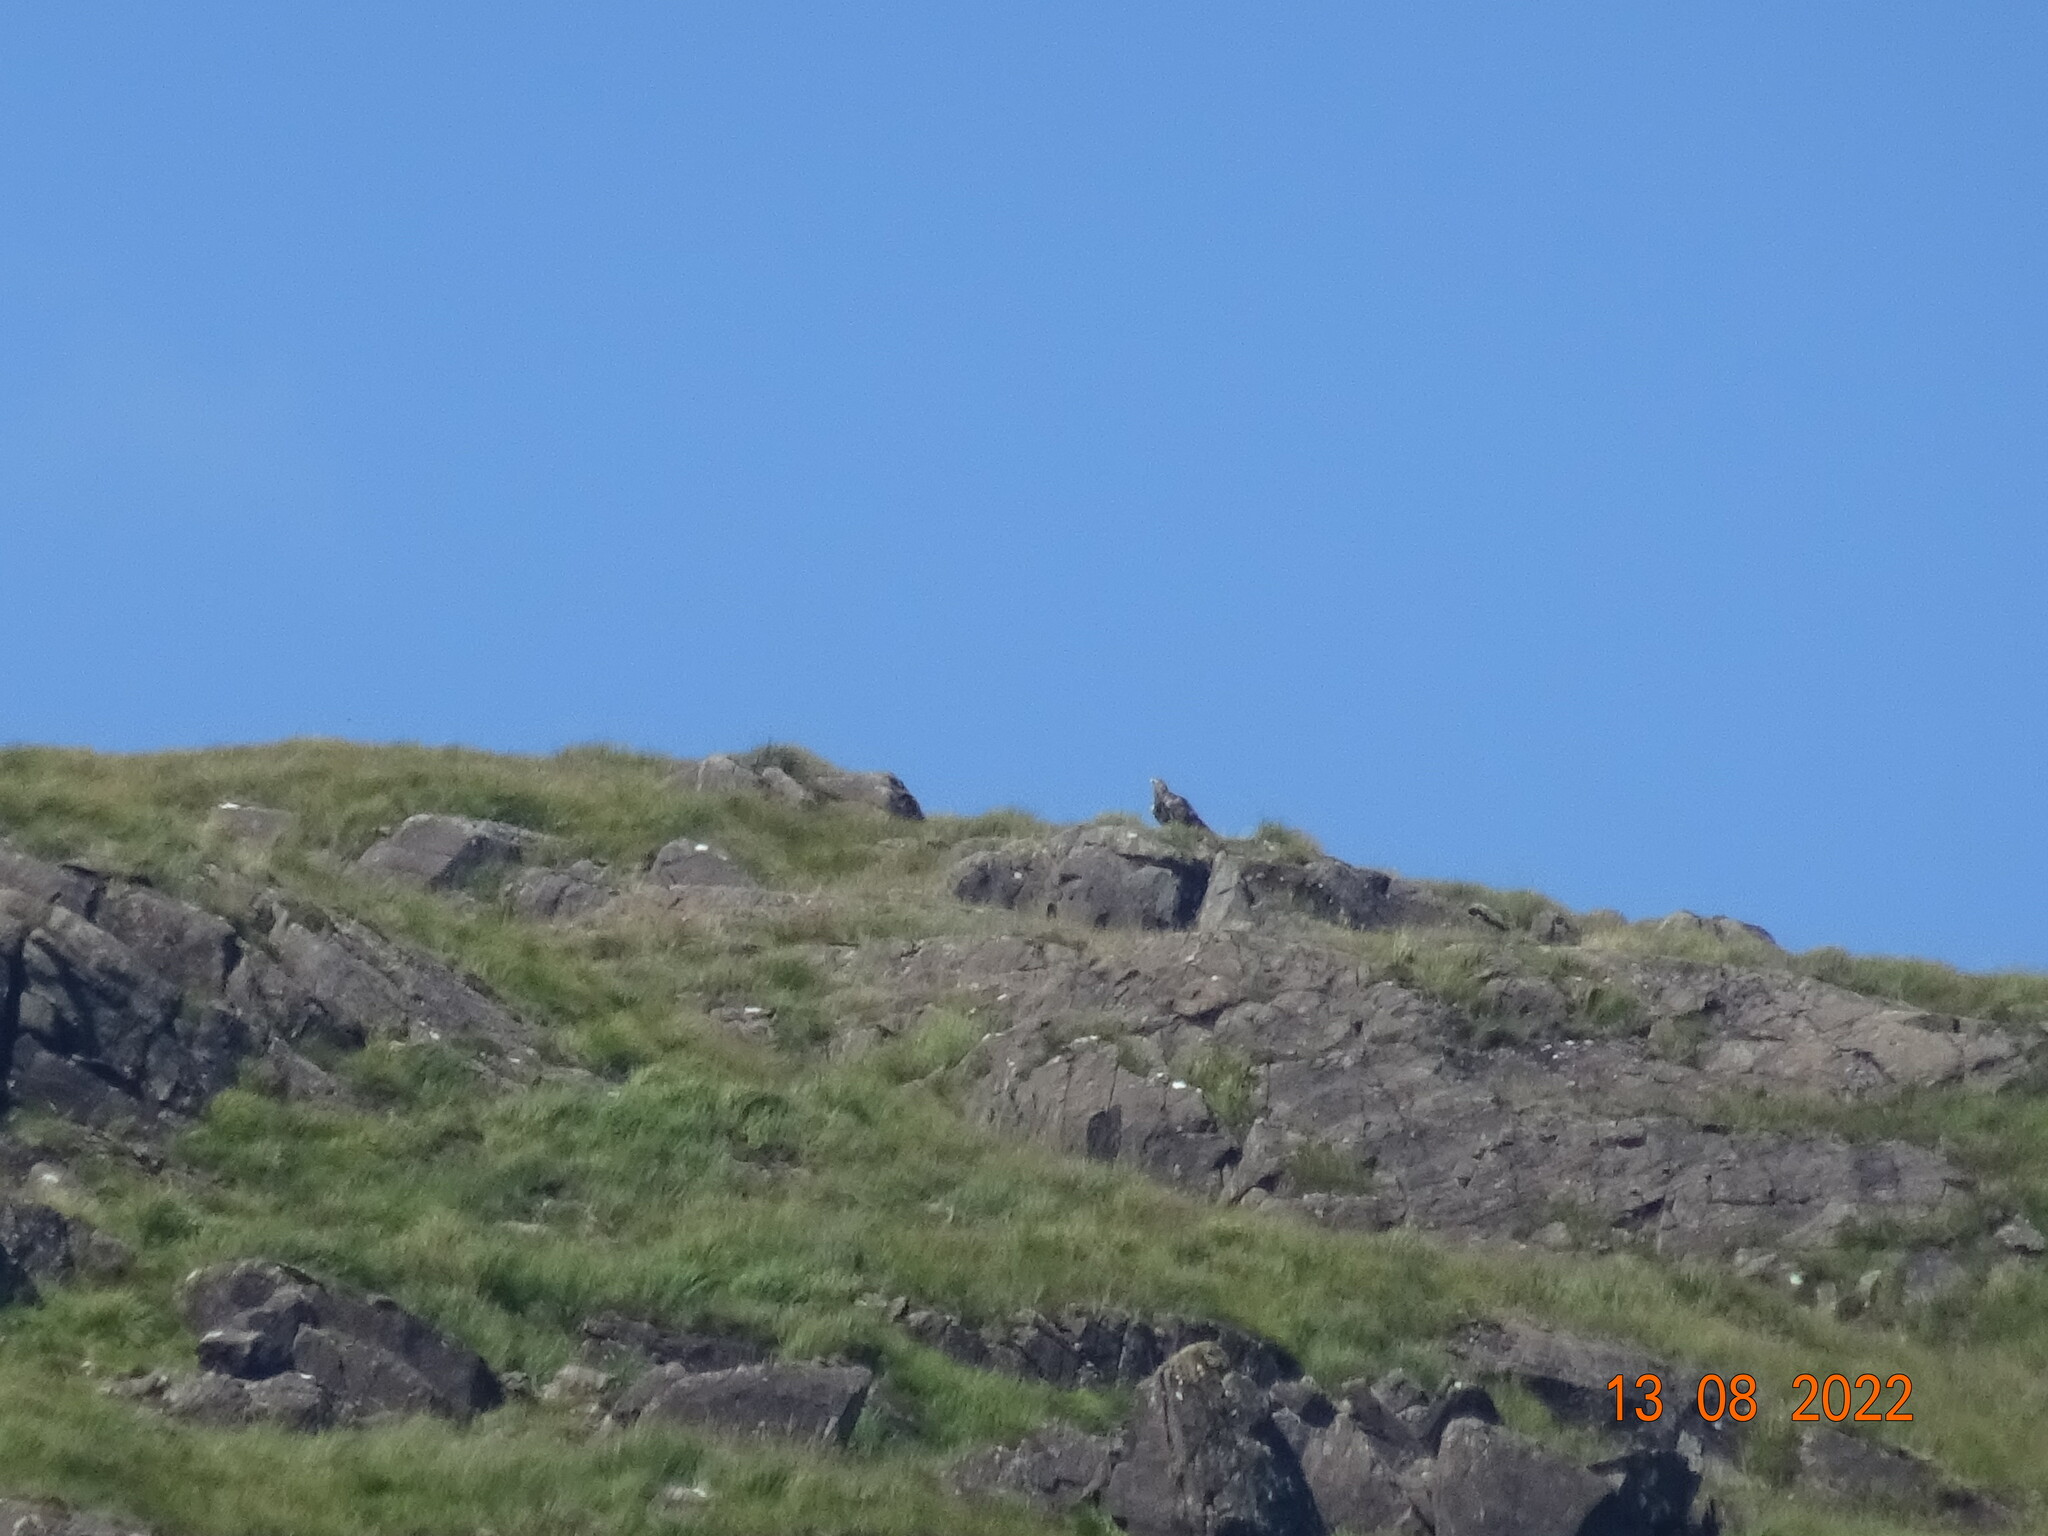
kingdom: Animalia
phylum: Chordata
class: Aves
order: Accipitriformes
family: Accipitridae
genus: Aquila
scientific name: Aquila chrysaetos
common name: Golden eagle
